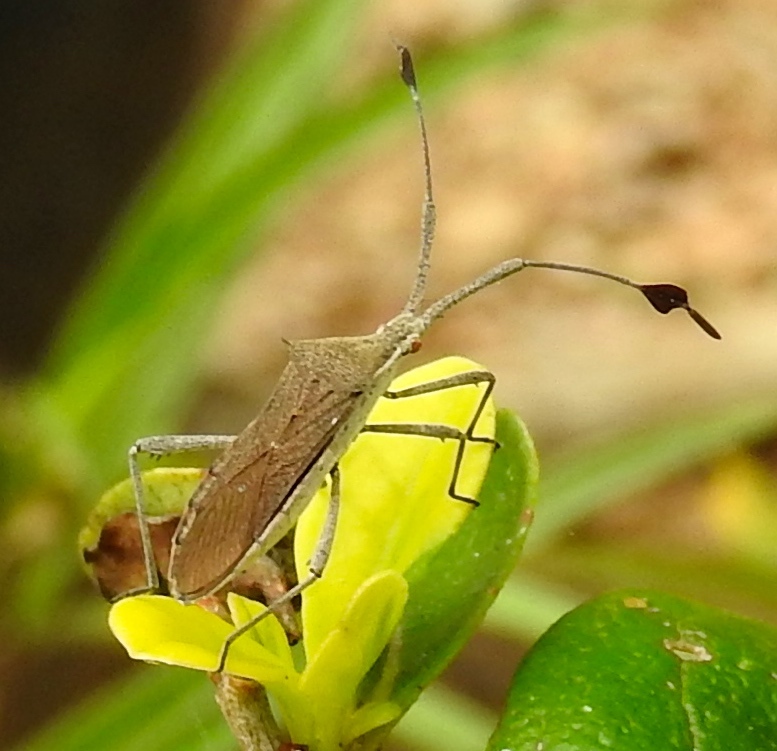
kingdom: Animalia
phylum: Arthropoda
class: Insecta
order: Hemiptera
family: Coreidae
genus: Chariesterus
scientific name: Chariesterus
